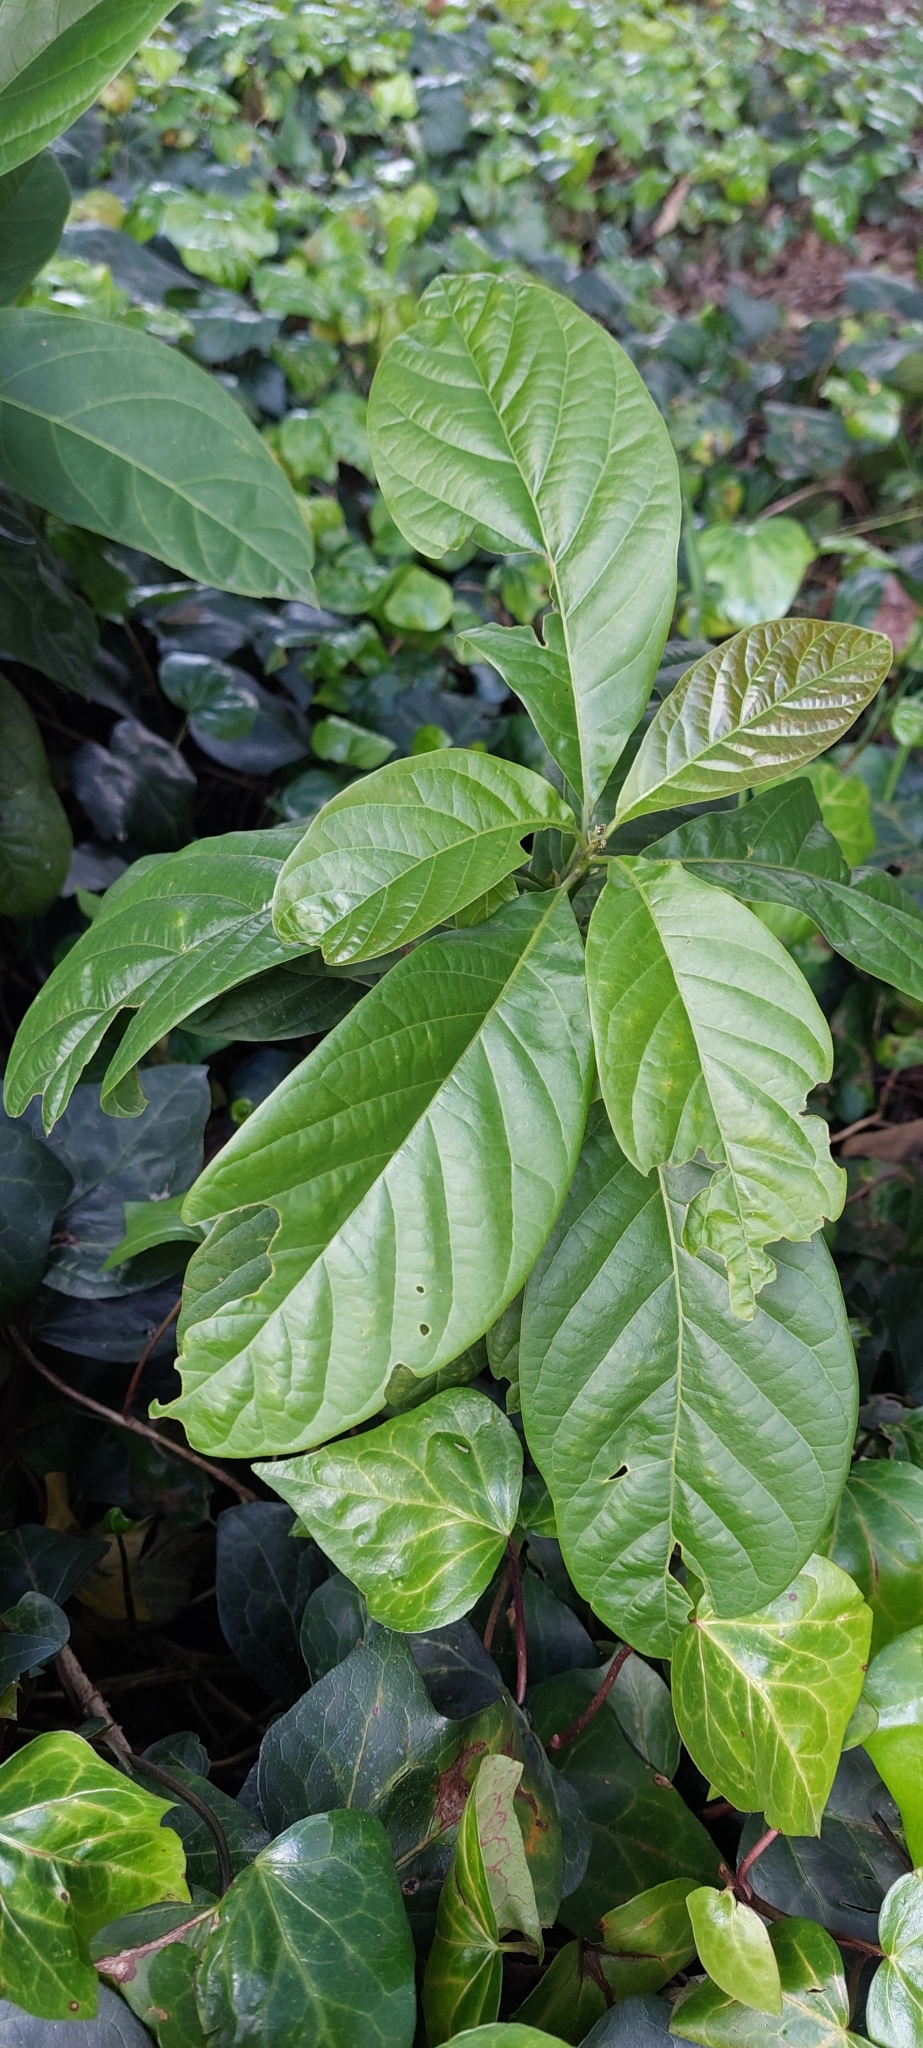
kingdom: Plantae
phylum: Tracheophyta
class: Magnoliopsida
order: Laurales
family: Lauraceae
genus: Persea
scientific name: Persea americana
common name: Avocado
